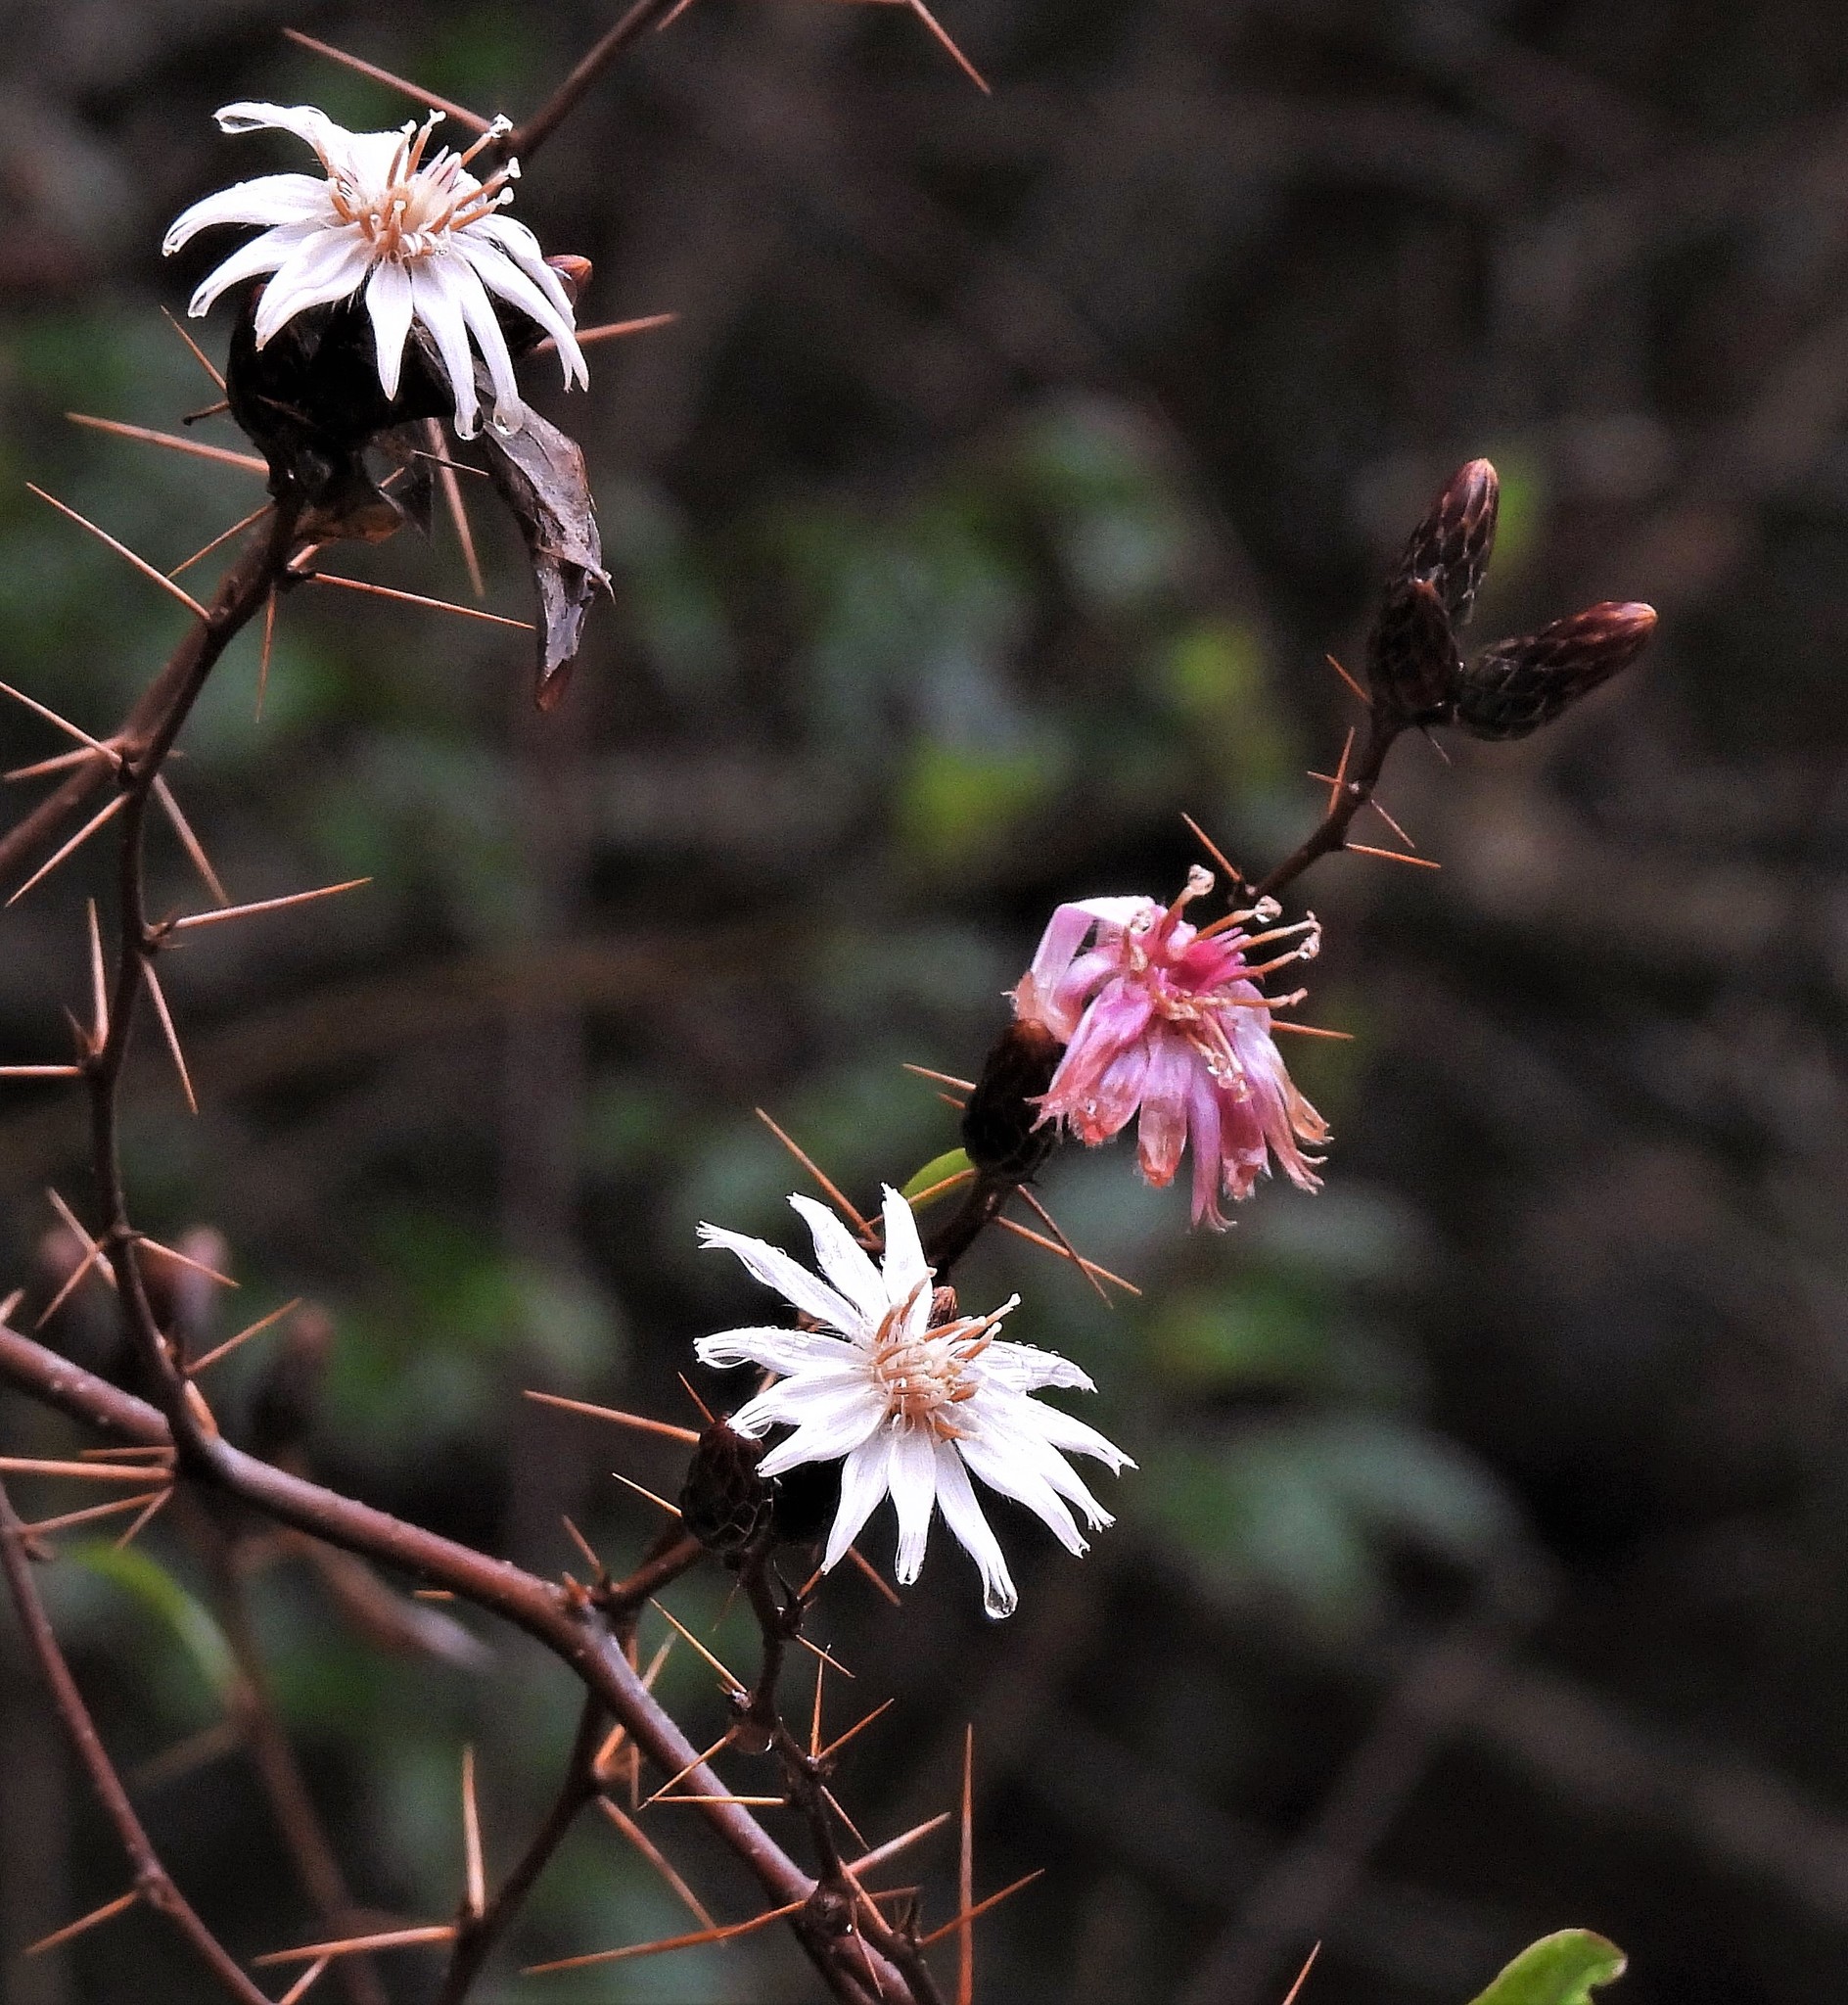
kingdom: Plantae
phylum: Tracheophyta
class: Magnoliopsida
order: Asterales
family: Asteraceae
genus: Barnadesia
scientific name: Barnadesia odorata
